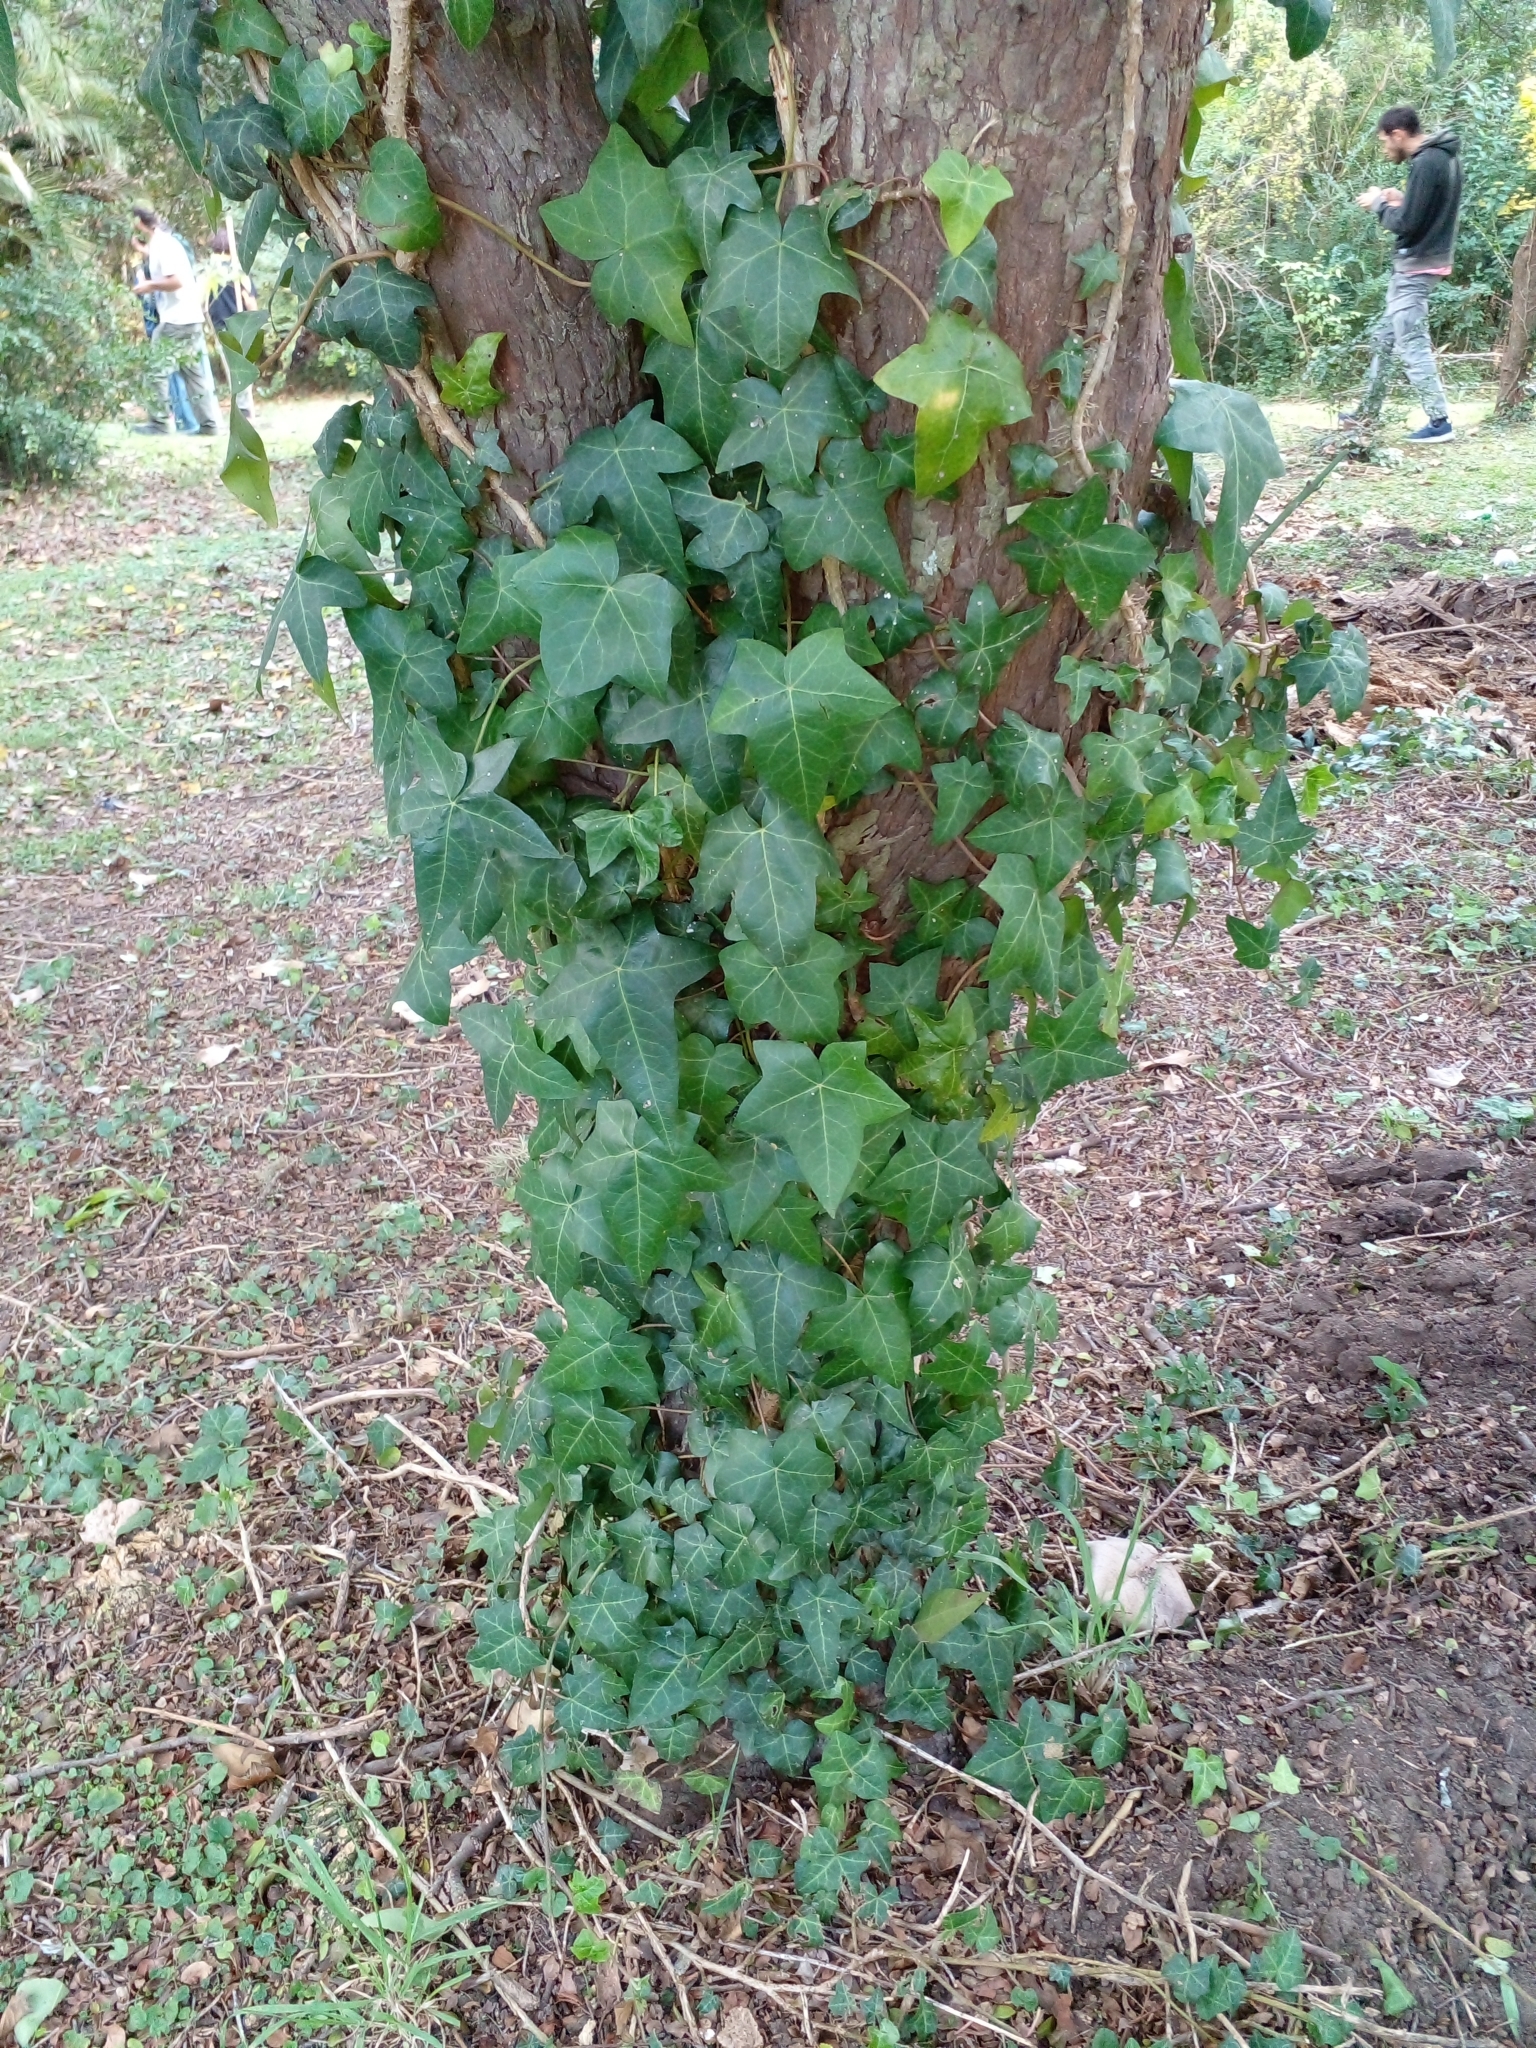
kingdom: Plantae
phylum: Tracheophyta
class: Magnoliopsida
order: Apiales
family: Araliaceae
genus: Hedera
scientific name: Hedera helix
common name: Ivy
